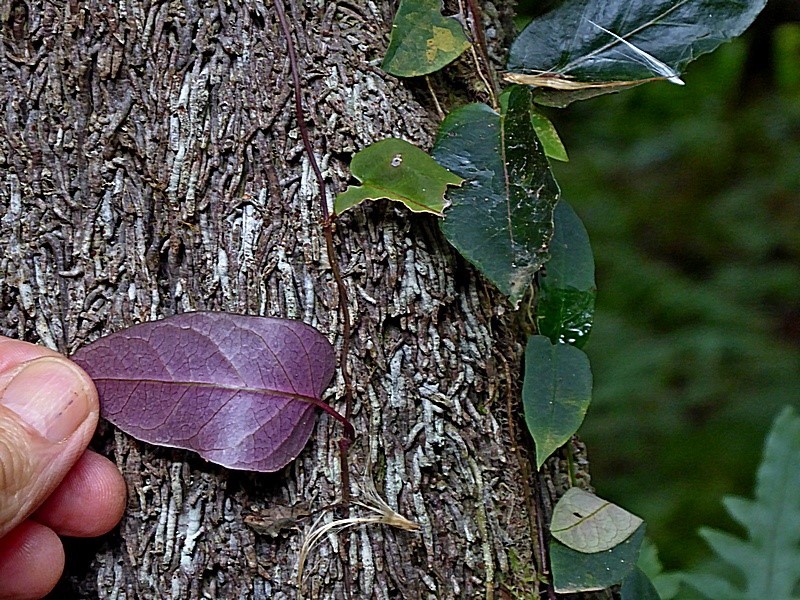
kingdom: Plantae
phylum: Tracheophyta
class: Magnoliopsida
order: Gentianales
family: Apocynaceae
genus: Parsonsia
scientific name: Parsonsia straminea
